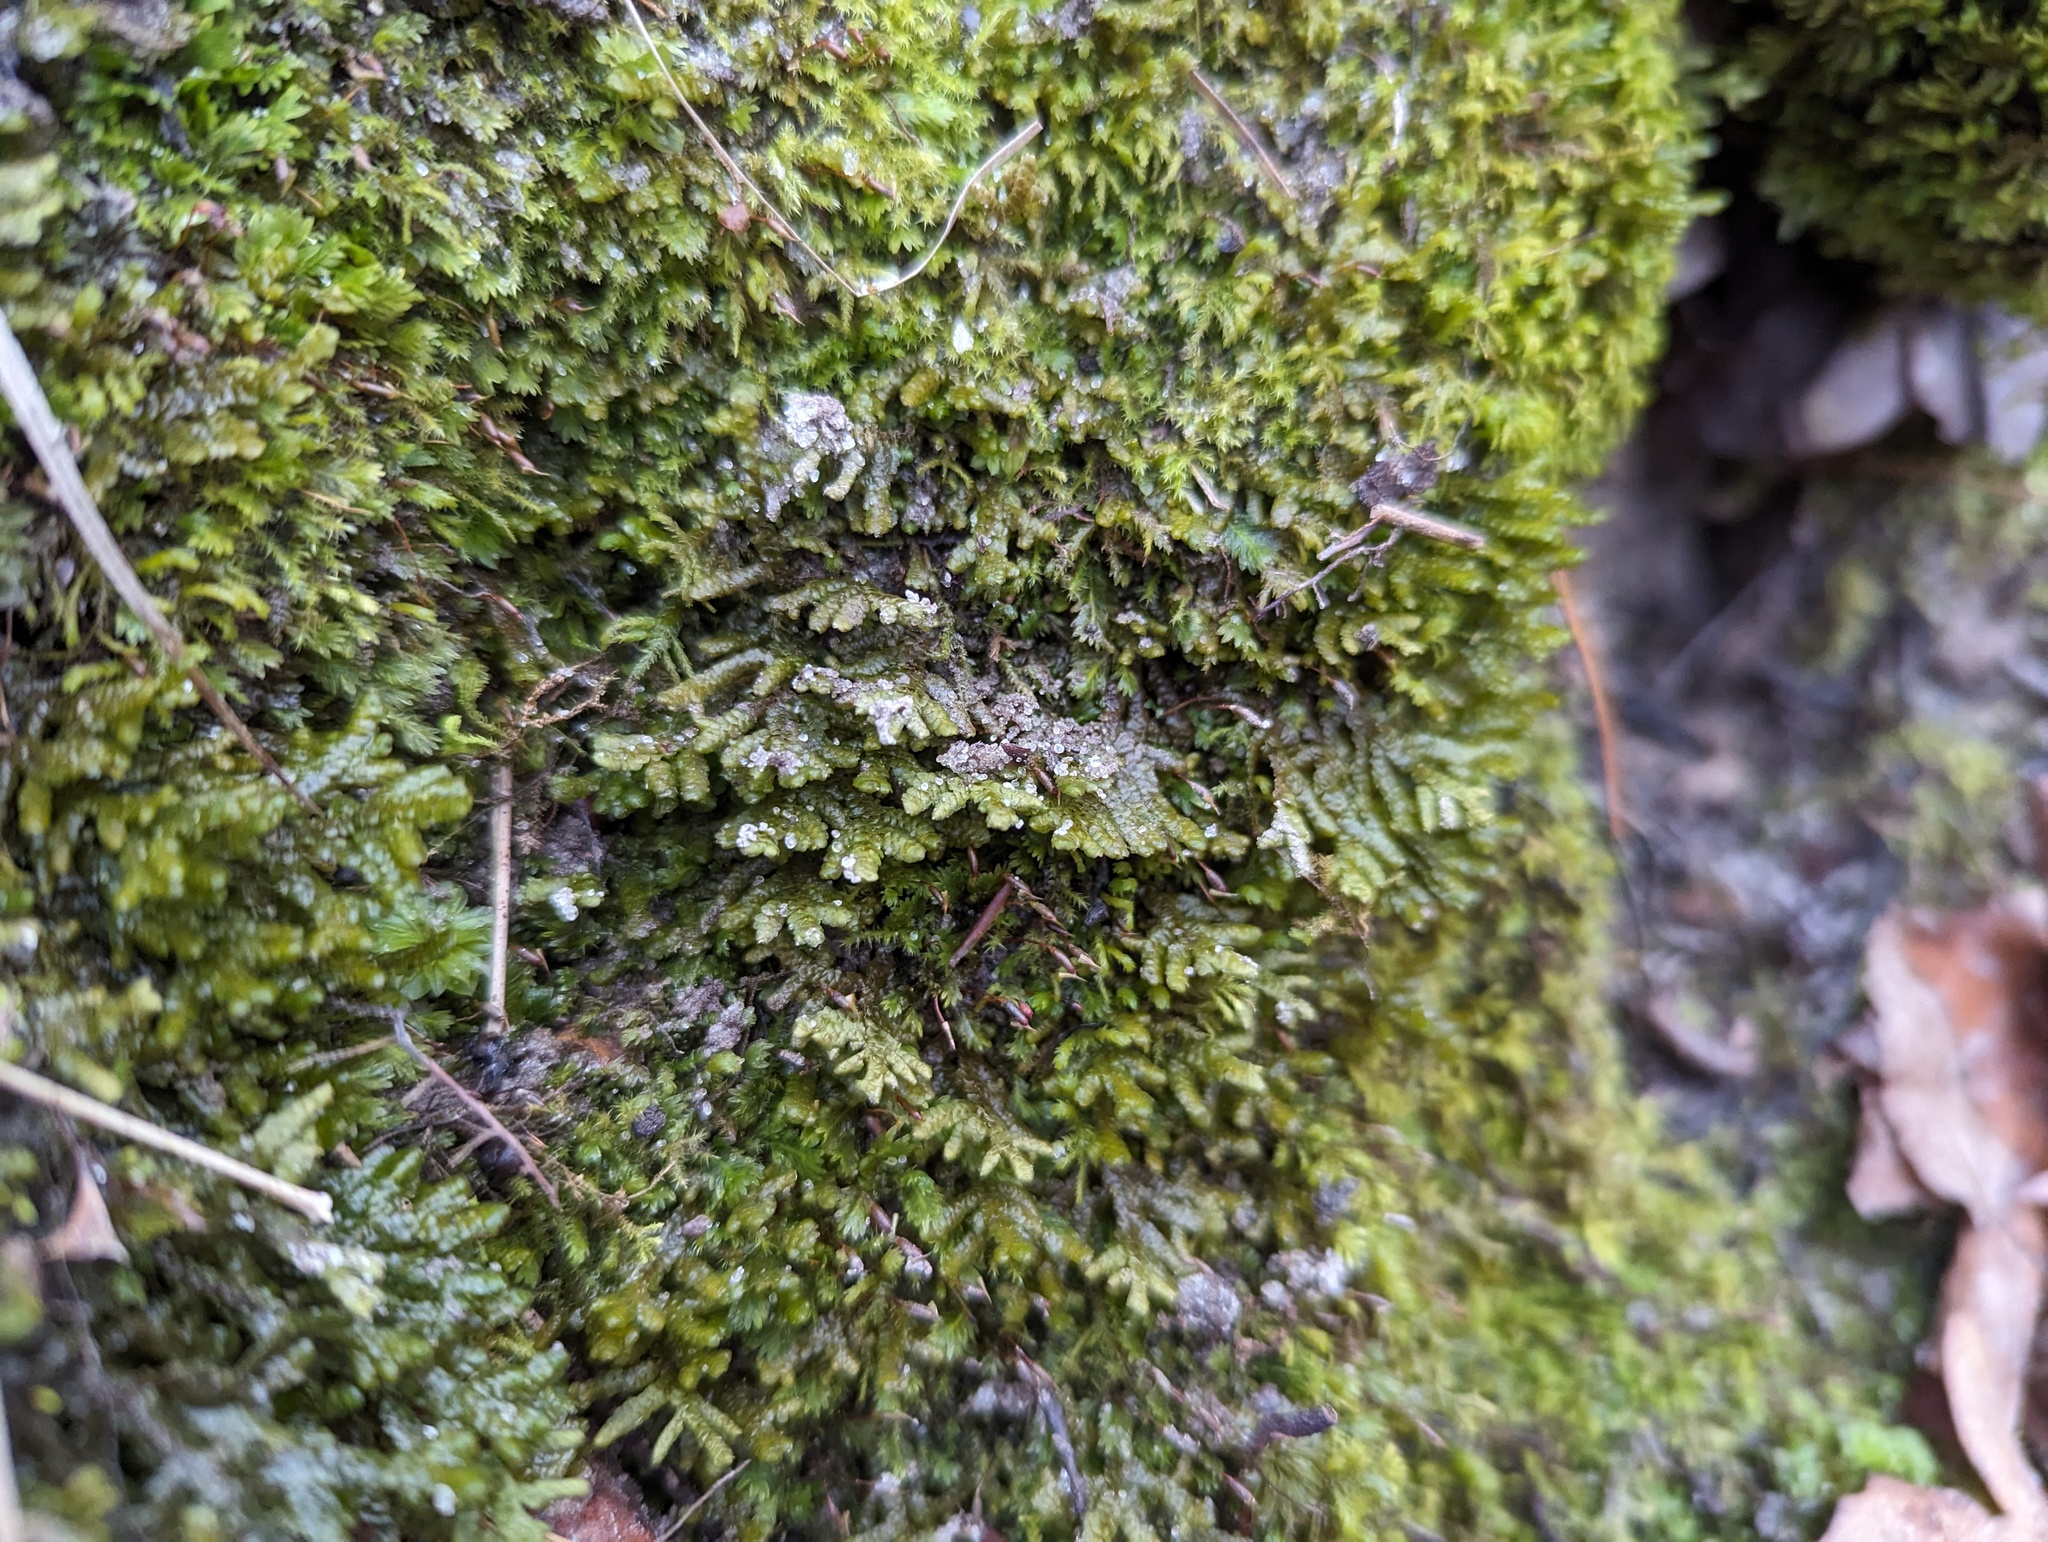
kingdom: Plantae
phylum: Marchantiophyta
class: Jungermanniopsida
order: Porellales
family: Porellaceae
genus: Porella
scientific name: Porella platyphylla
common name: Wall scalewort
